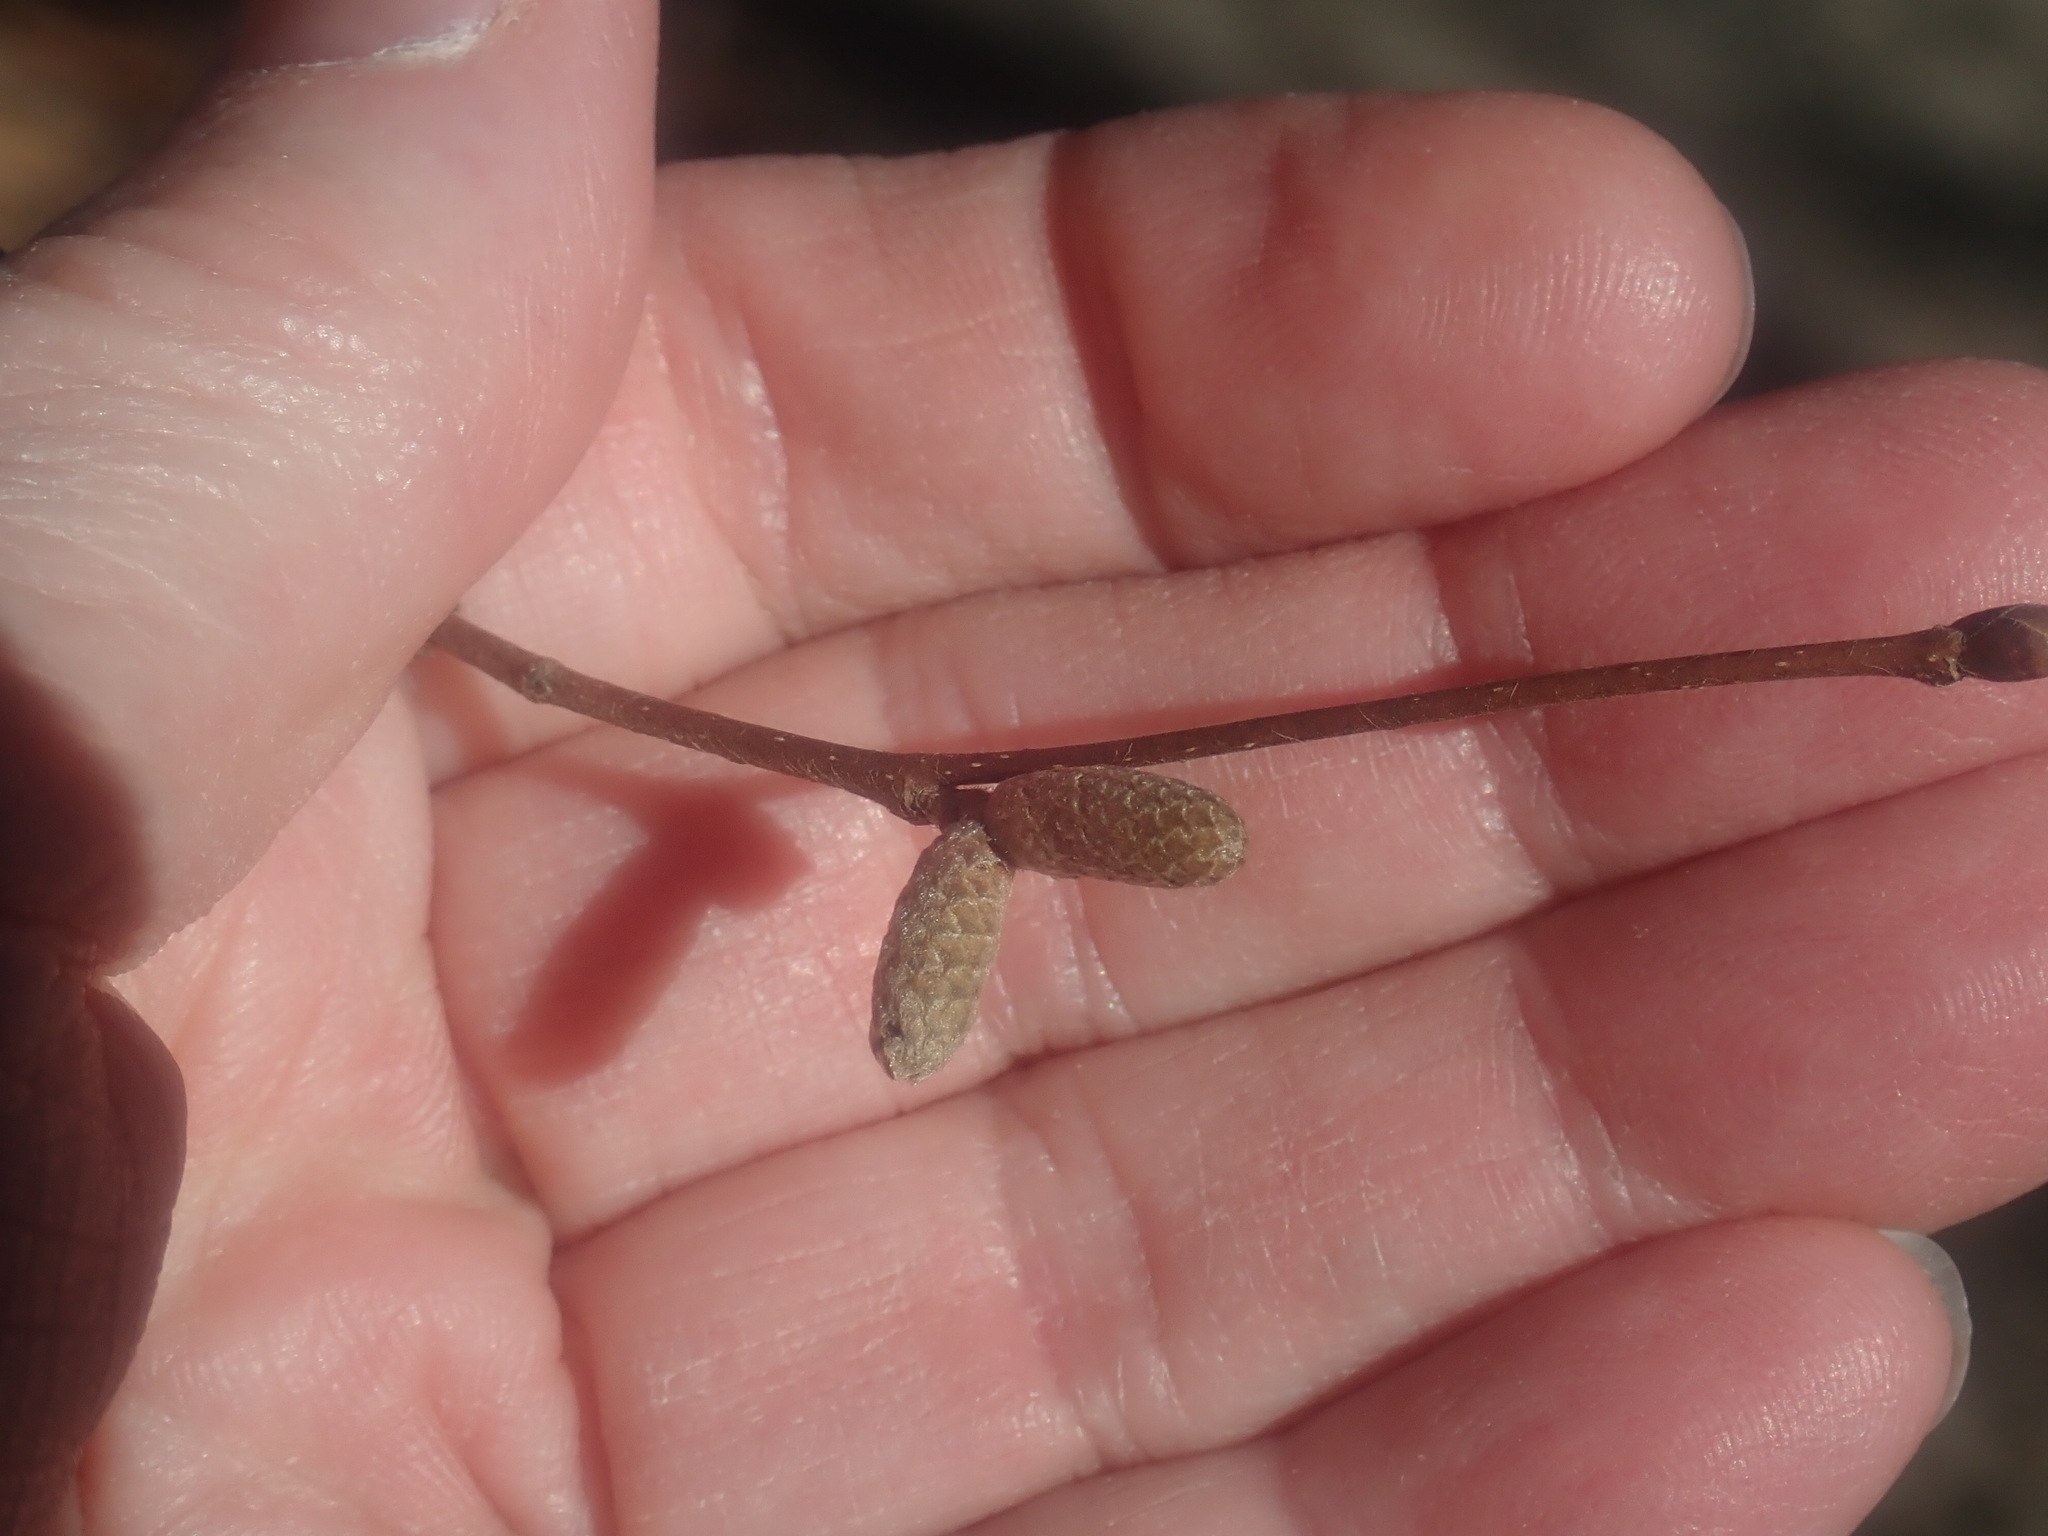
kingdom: Plantae
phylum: Tracheophyta
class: Magnoliopsida
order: Fagales
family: Betulaceae
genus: Corylus
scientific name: Corylus cornuta
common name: Beaked hazel
